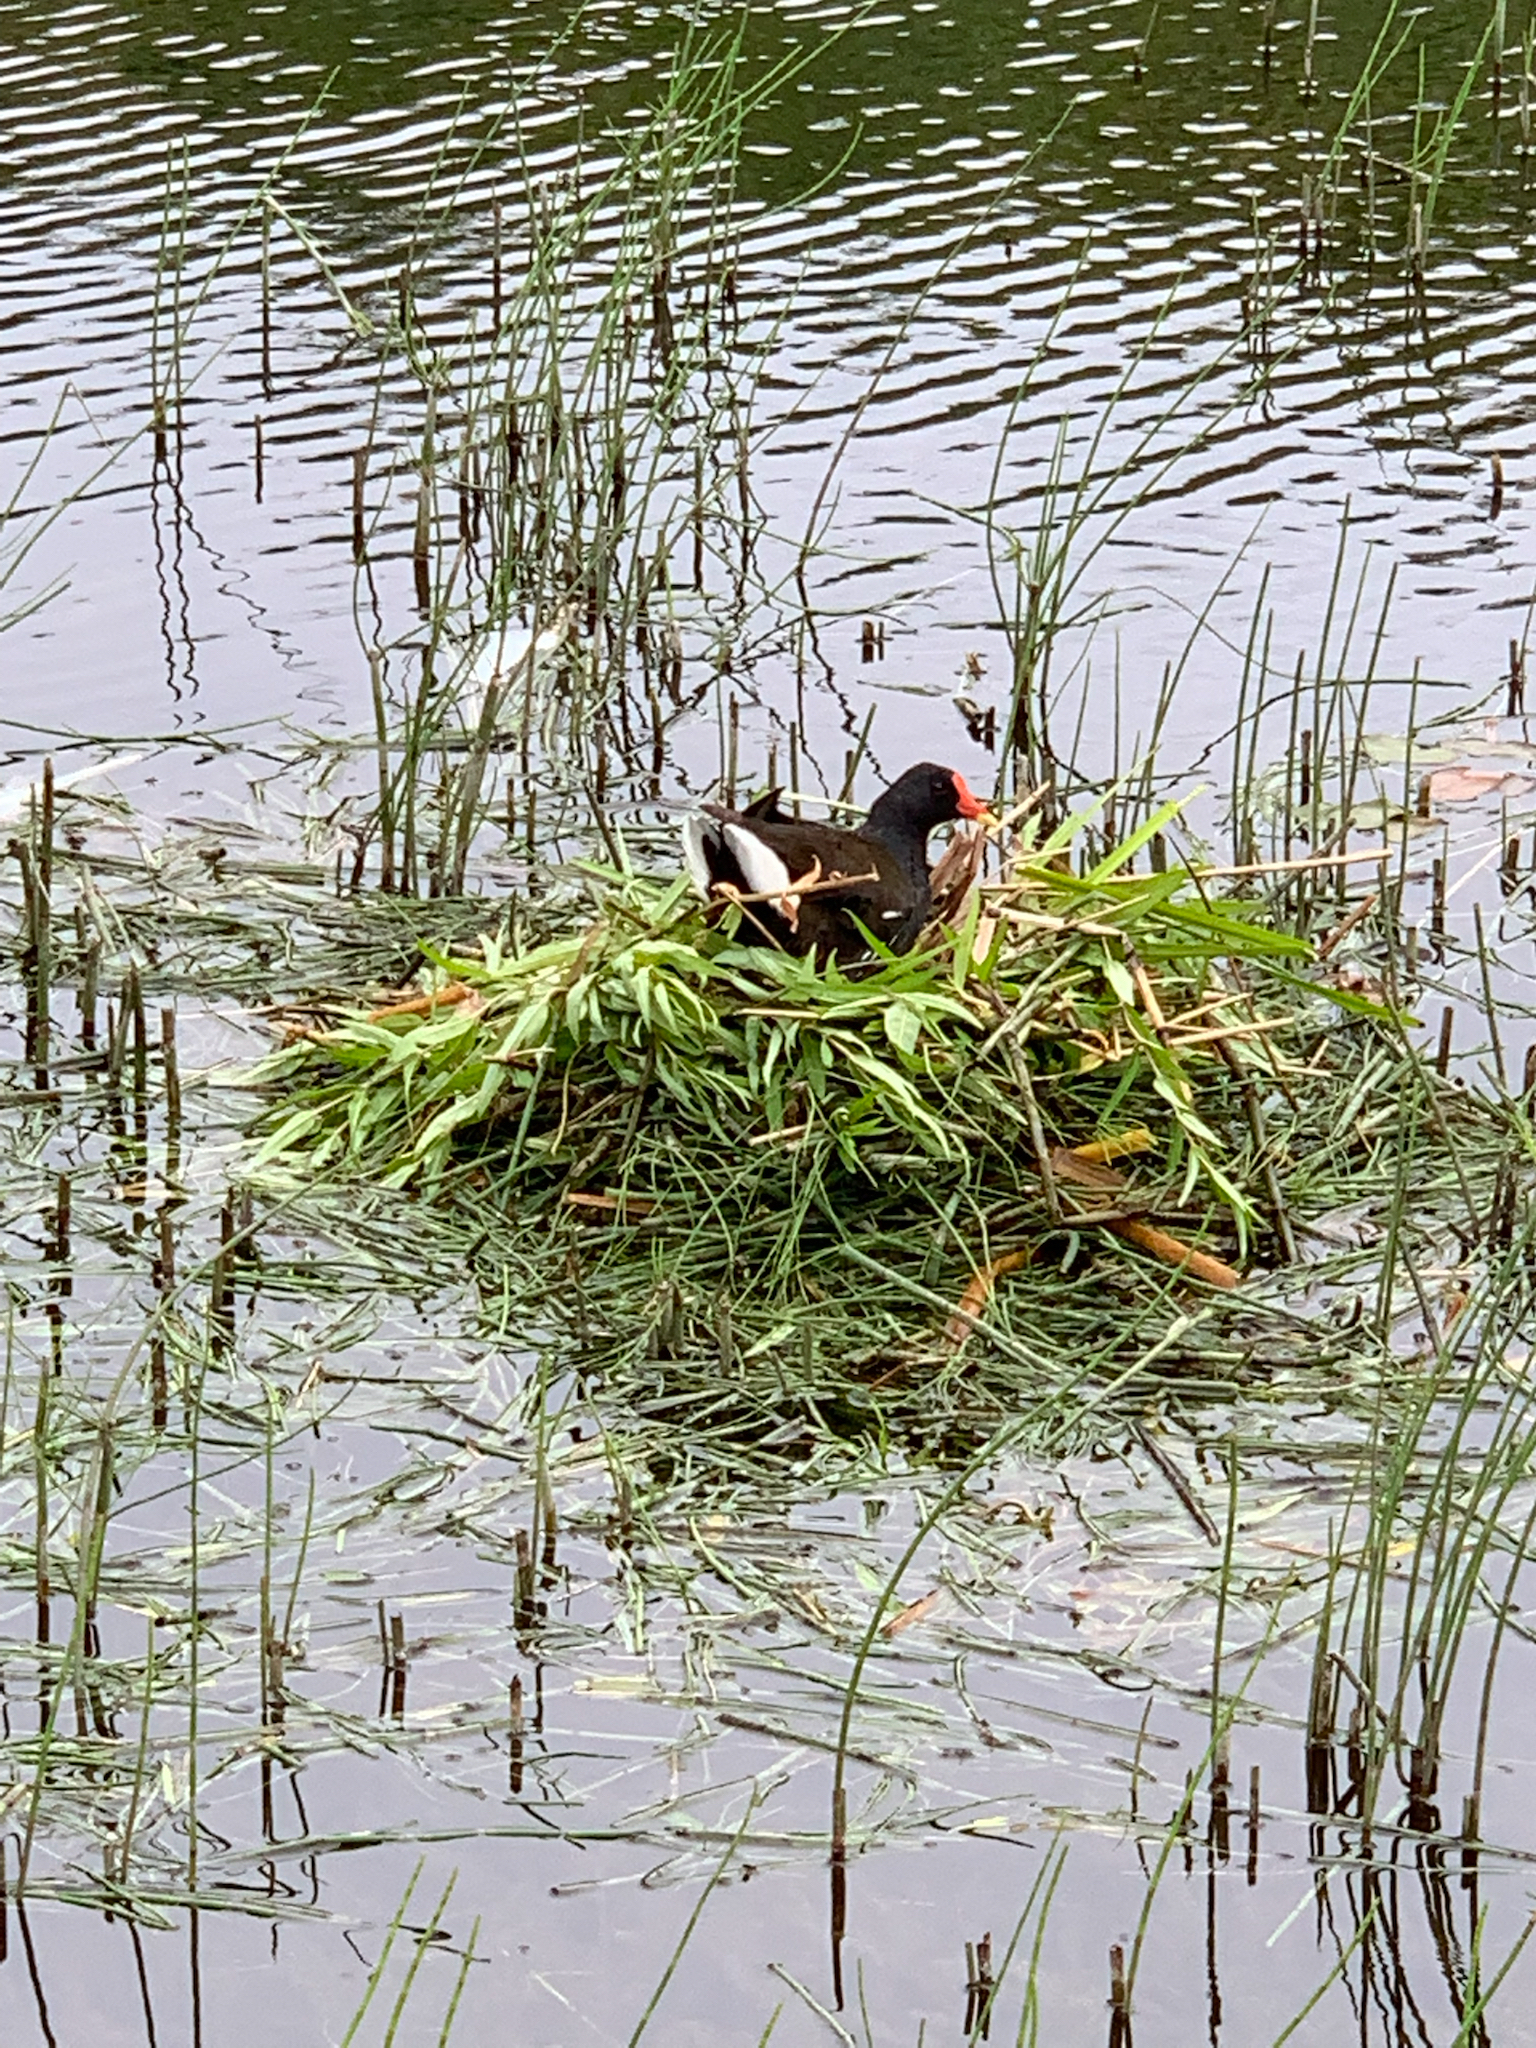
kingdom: Animalia
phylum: Chordata
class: Aves
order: Gruiformes
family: Rallidae
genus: Gallinula
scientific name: Gallinula chloropus
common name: Common moorhen
